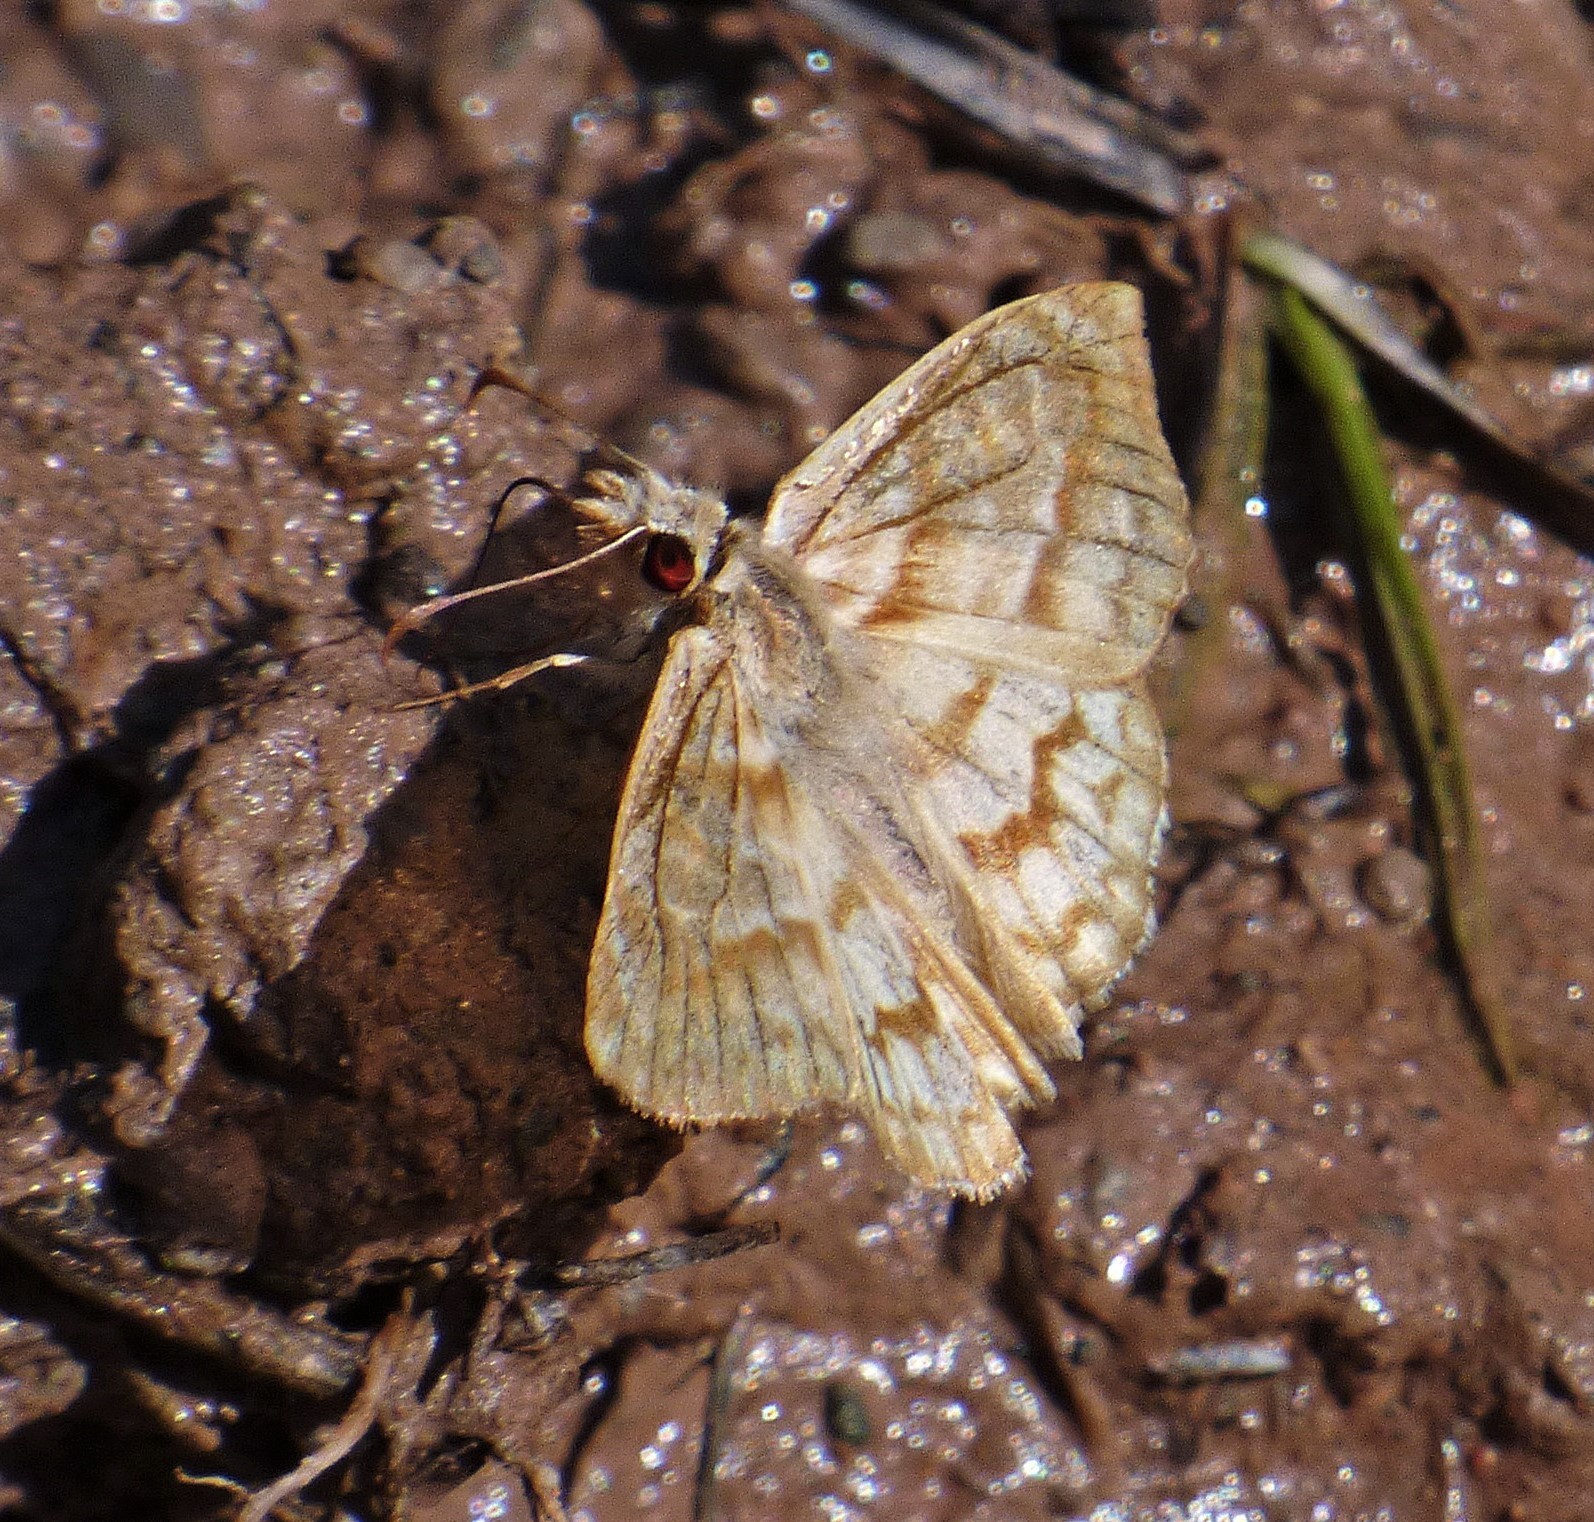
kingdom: Animalia
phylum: Arthropoda
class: Insecta
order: Lepidoptera
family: Hesperiidae
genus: Timochares
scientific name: Timochares trifasciata
